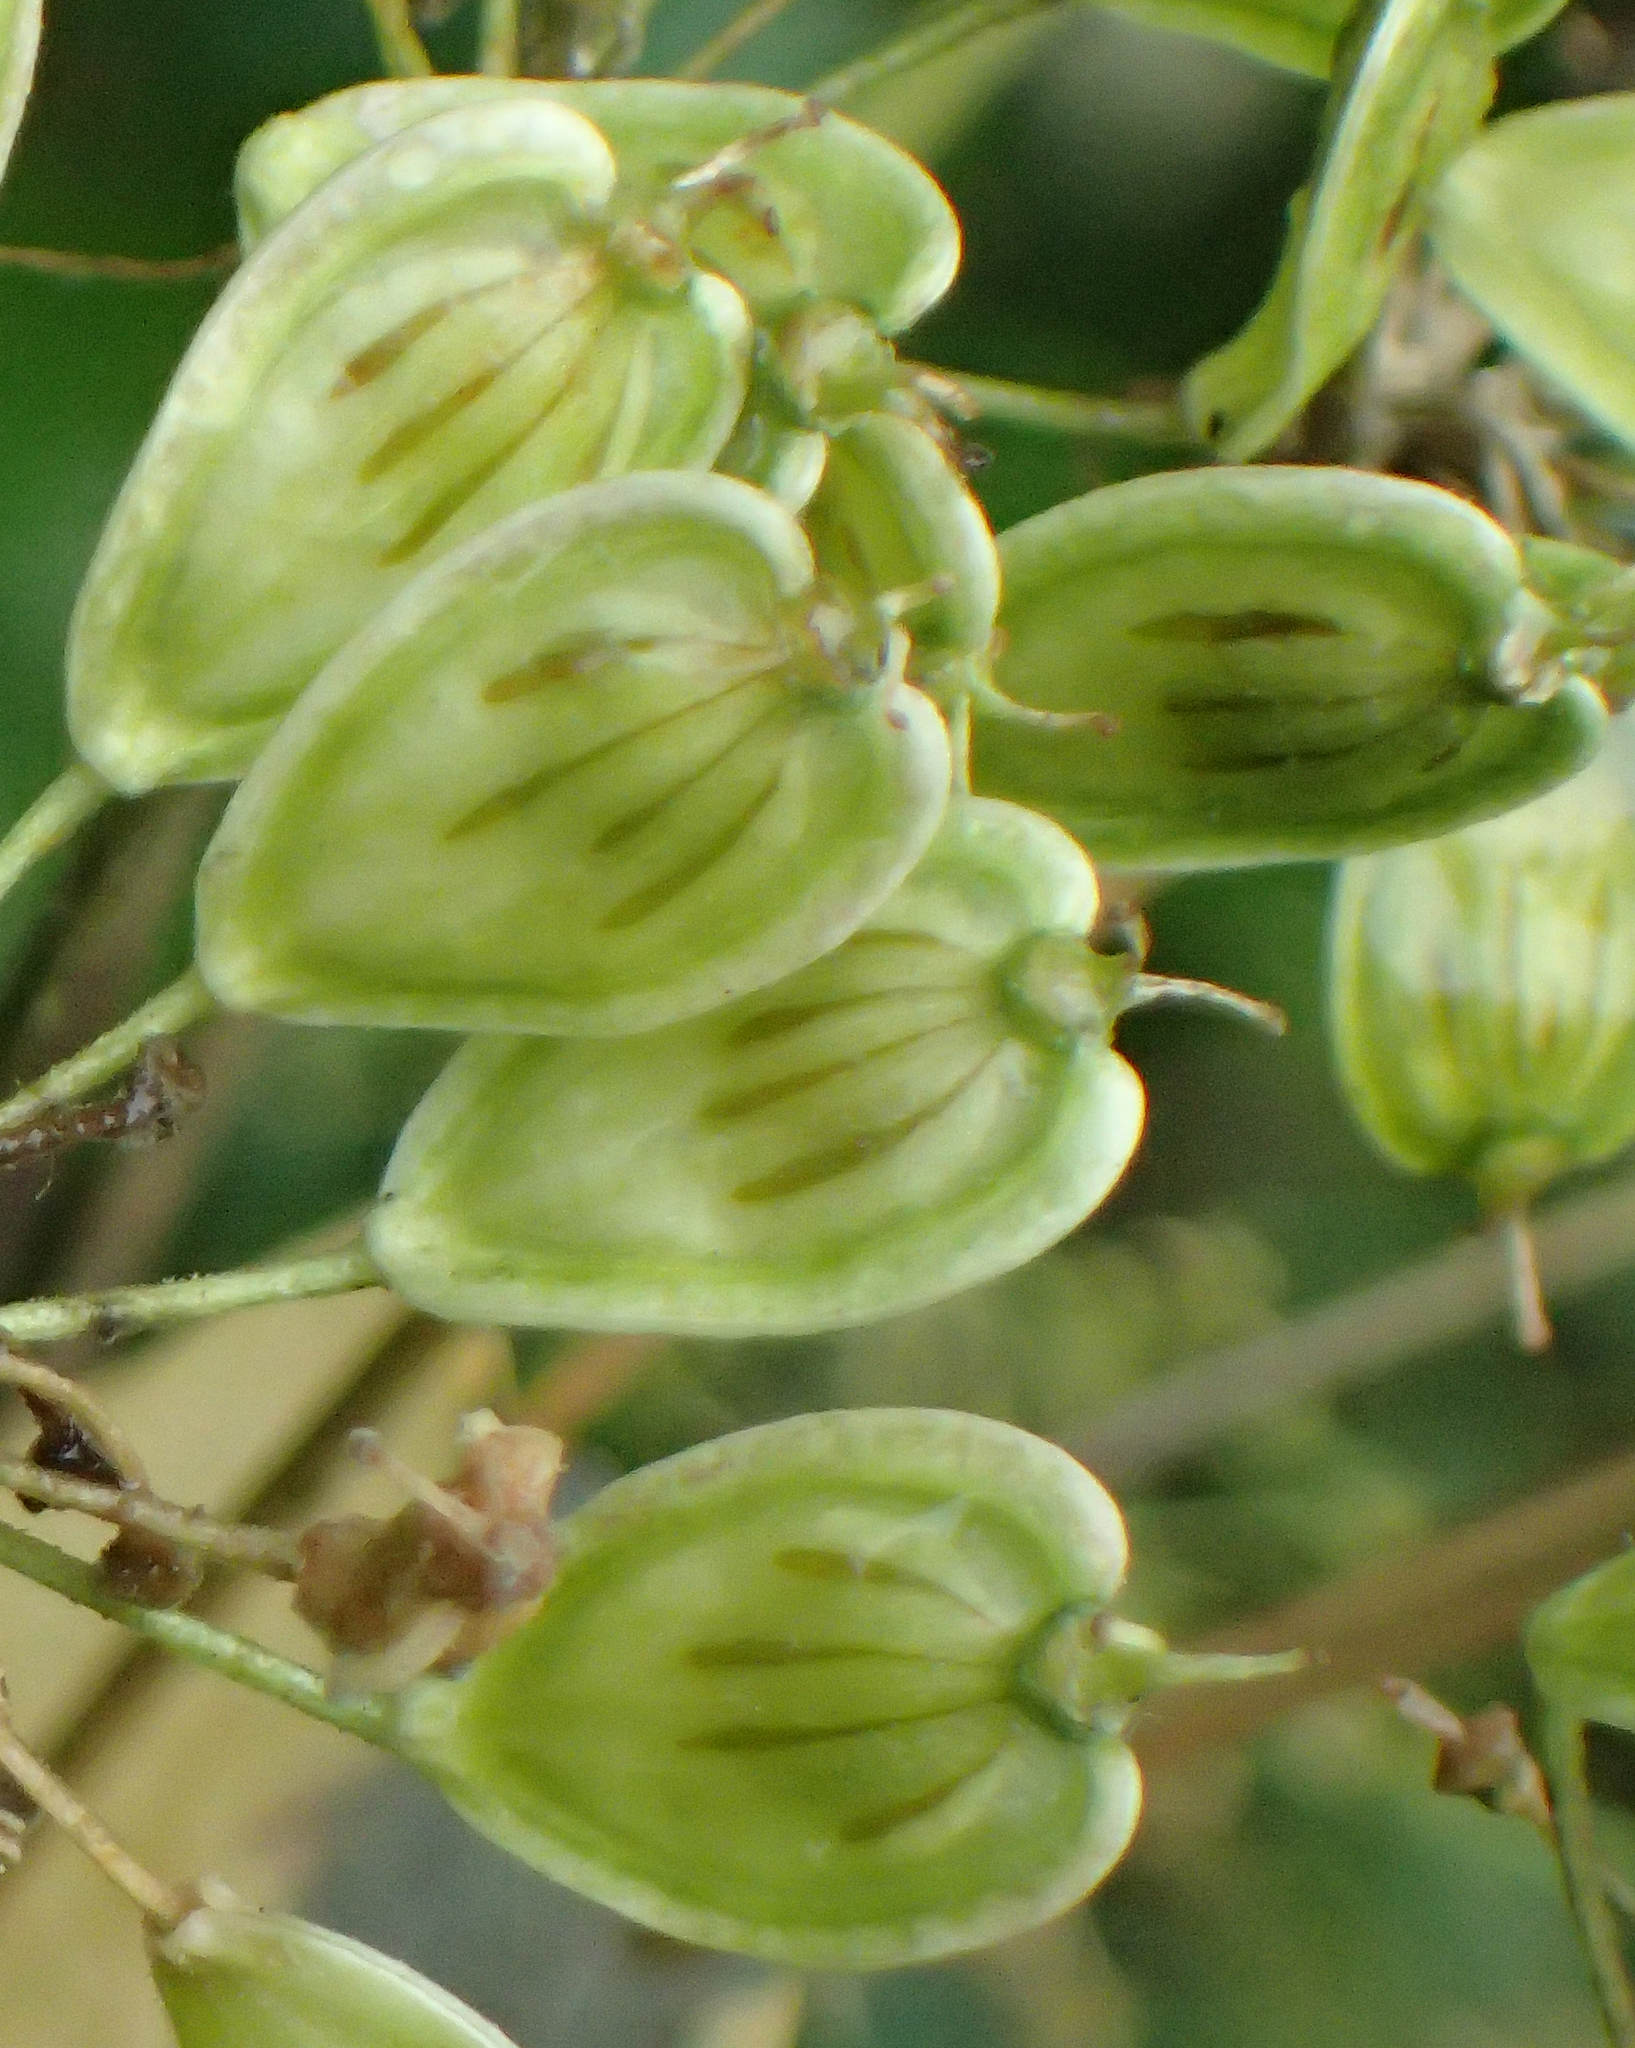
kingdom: Plantae
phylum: Tracheophyta
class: Magnoliopsida
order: Apiales
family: Apiaceae
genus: Heracleum
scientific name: Heracleum maximum
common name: American cow parsnip
